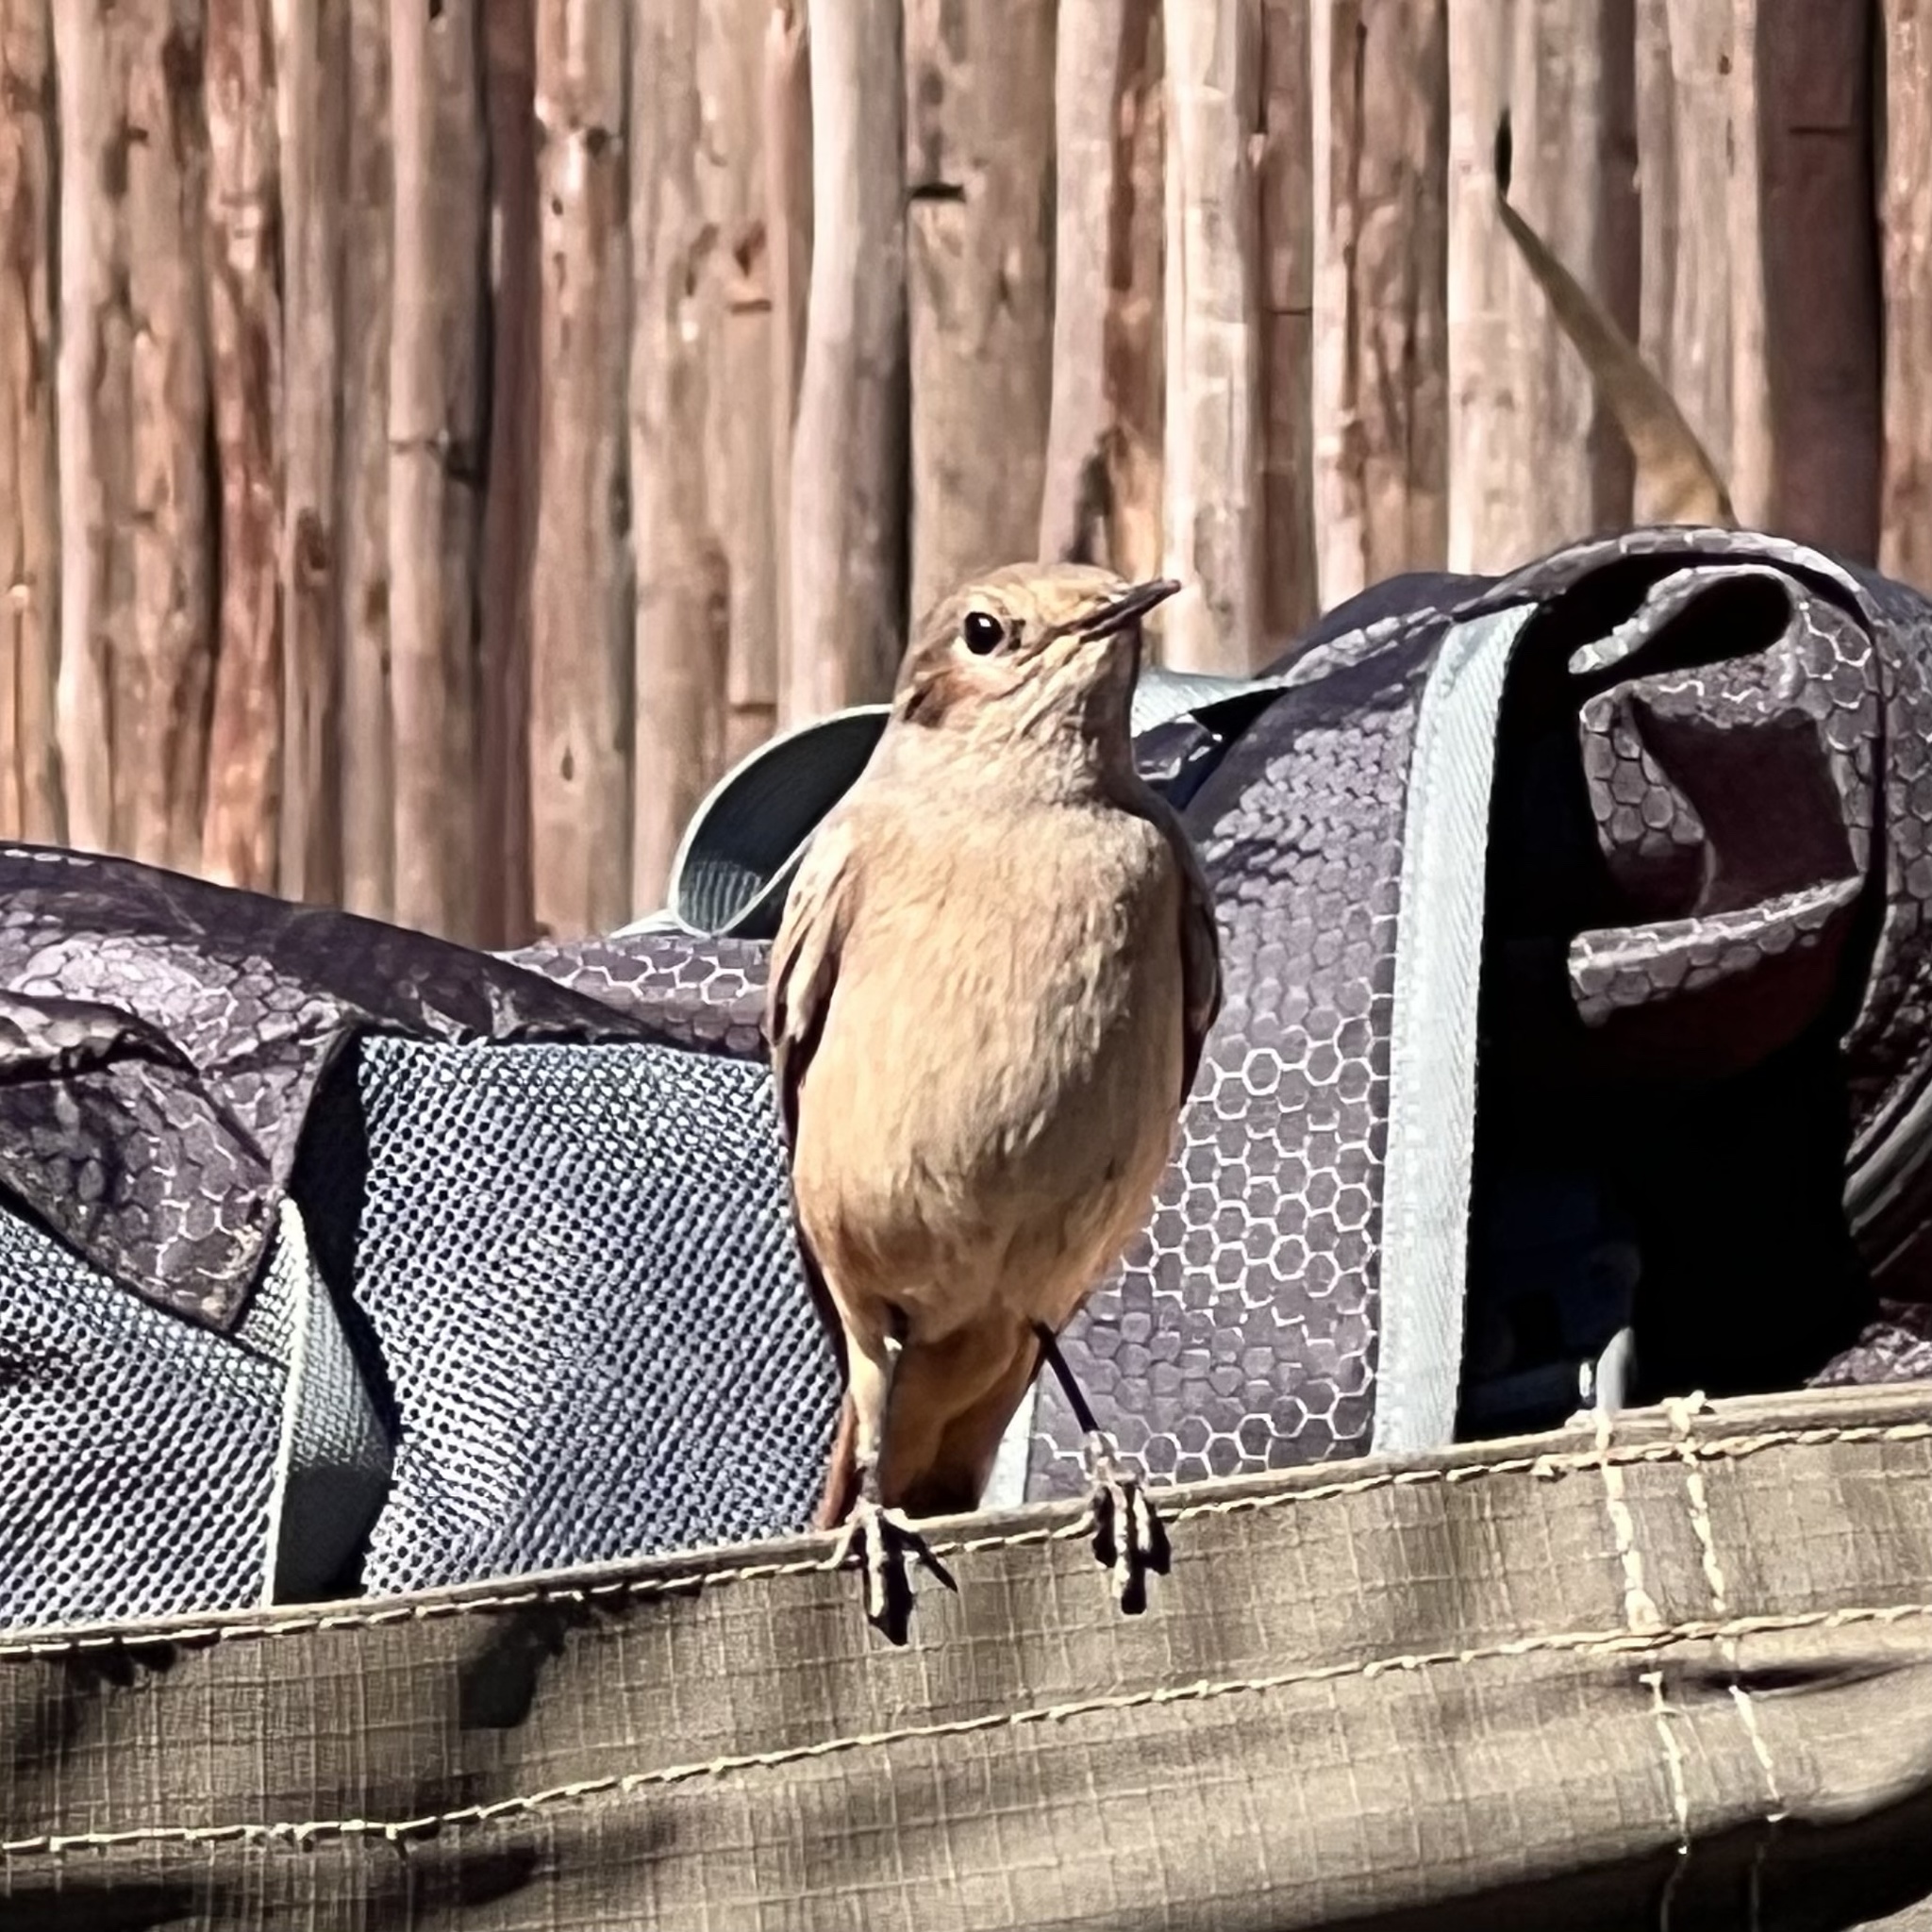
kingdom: Animalia
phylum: Chordata
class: Aves
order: Passeriformes
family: Muscicapidae
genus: Oenanthe
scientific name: Oenanthe familiaris
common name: Familiar chat
